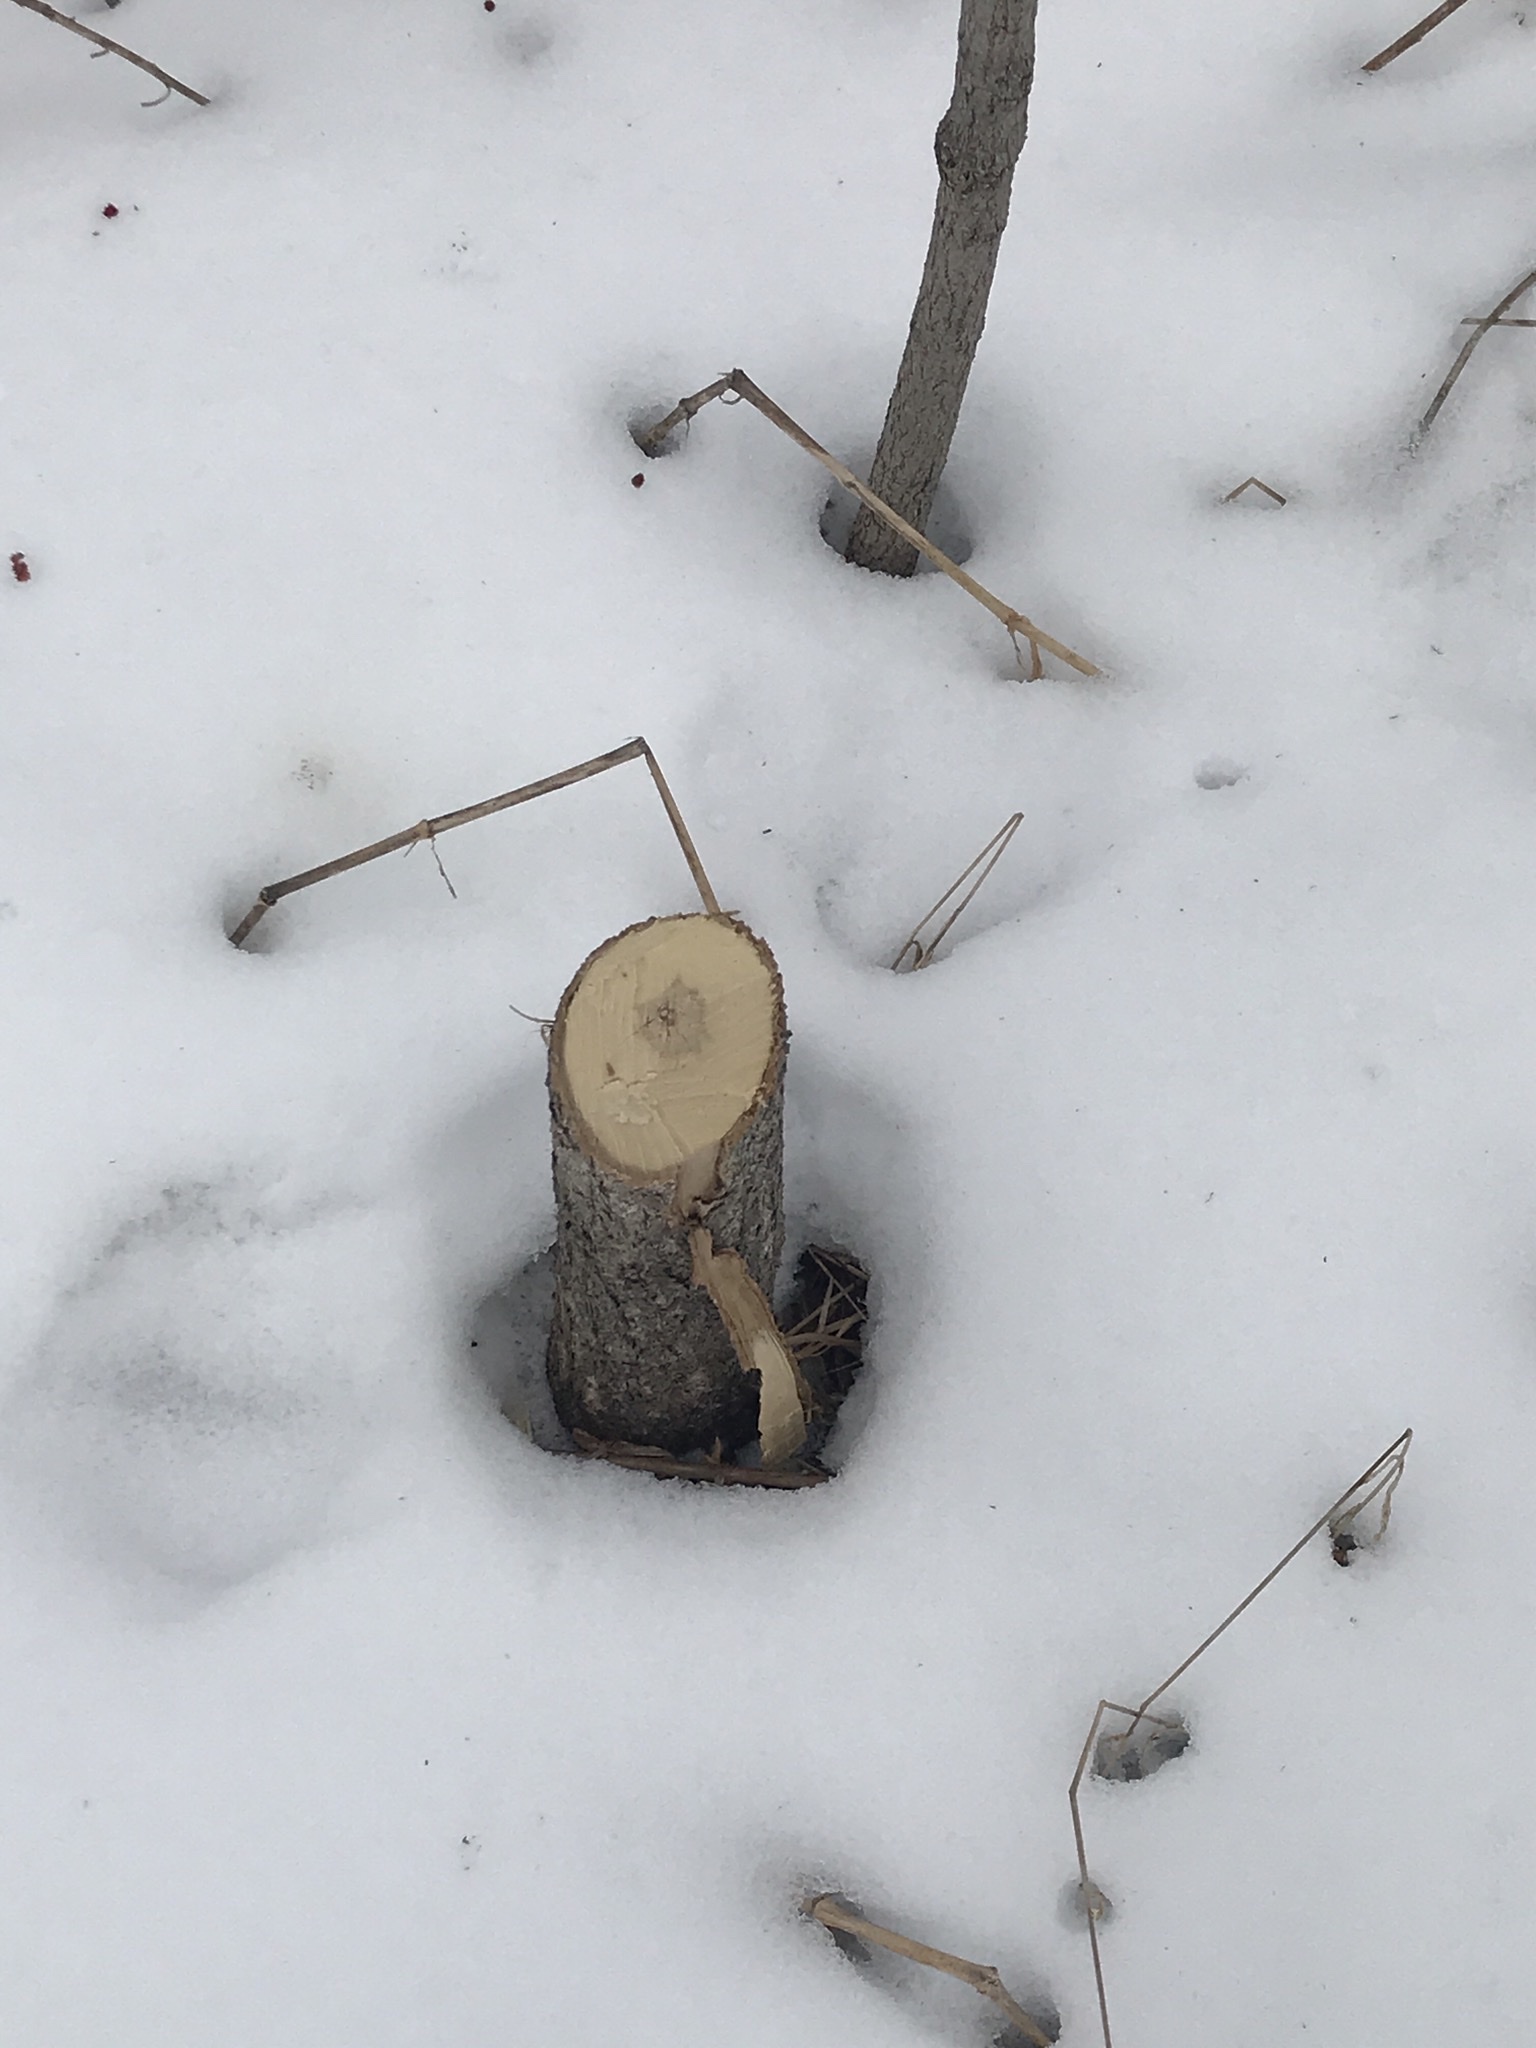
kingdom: Animalia
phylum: Chordata
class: Mammalia
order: Rodentia
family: Castoridae
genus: Castor
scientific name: Castor canadensis
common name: American beaver
